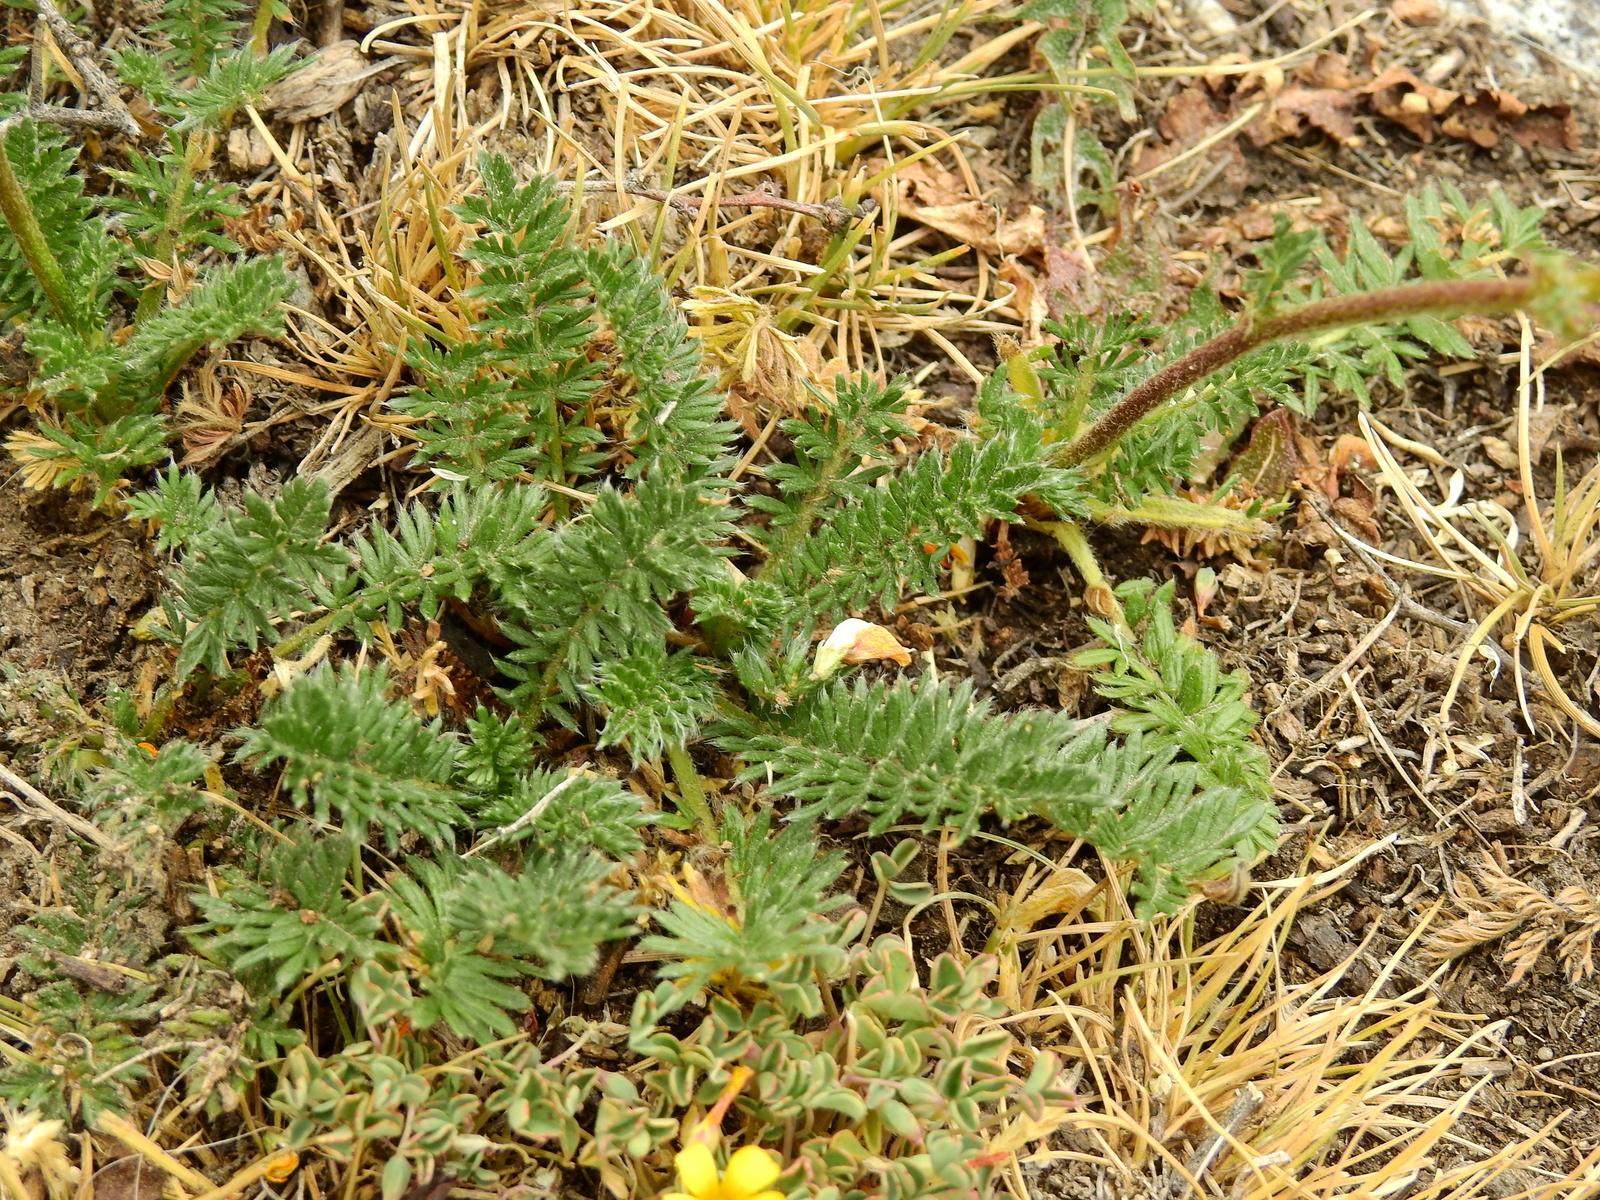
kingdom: Plantae
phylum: Tracheophyta
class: Magnoliopsida
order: Rosales
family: Rosaceae
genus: Acaena
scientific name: Acaena pinnatifida
